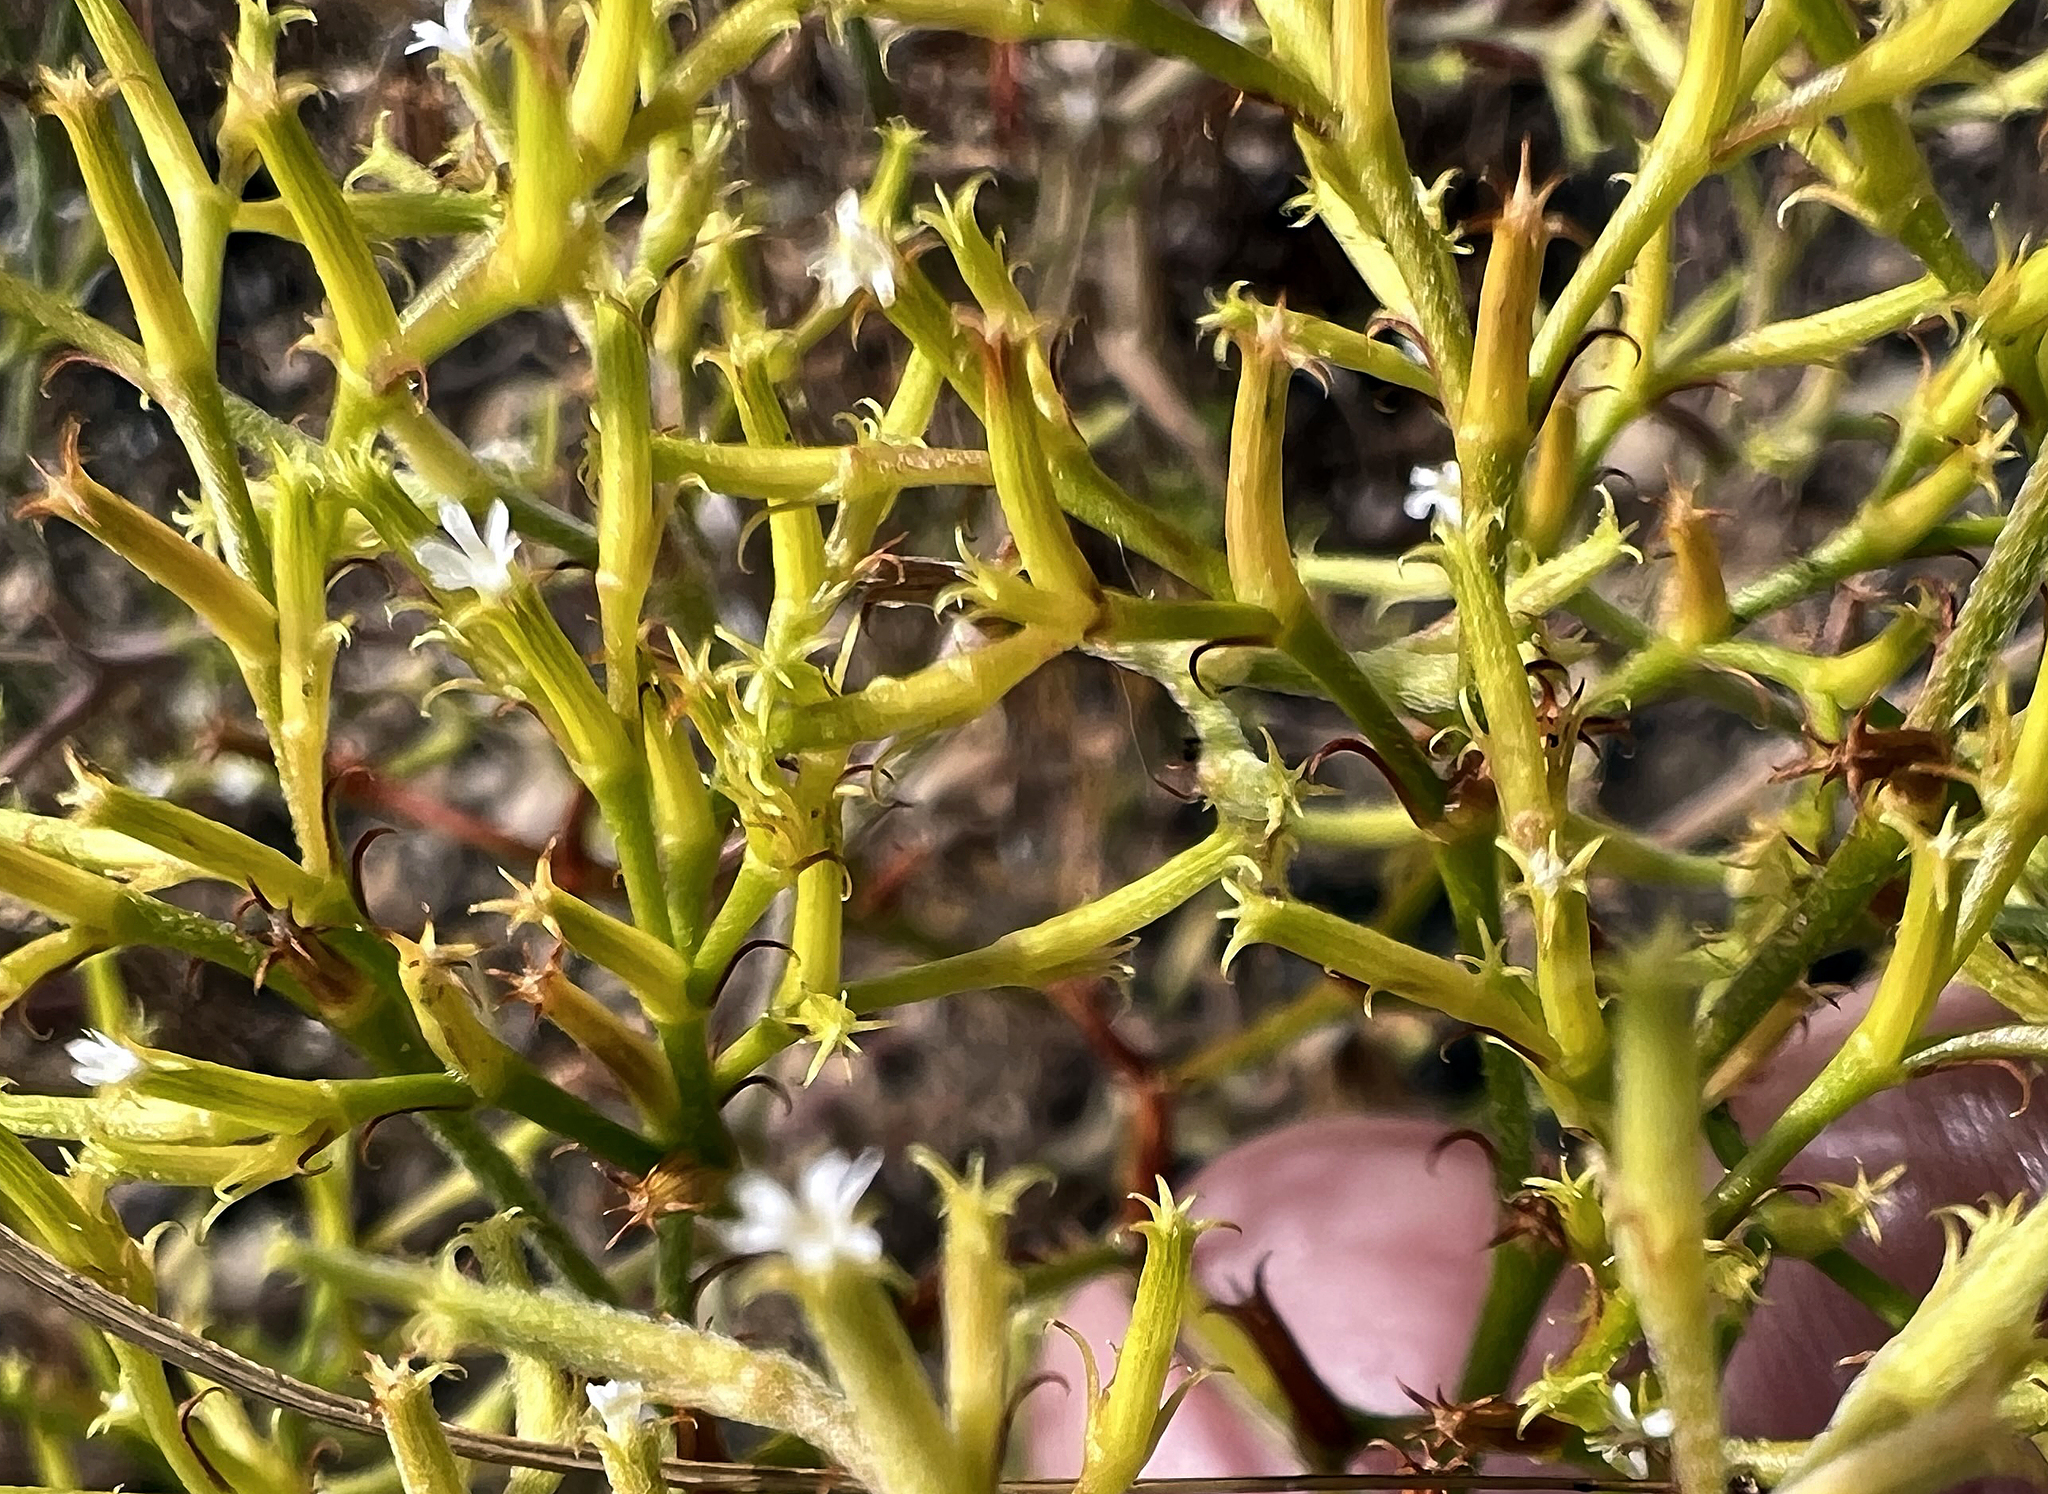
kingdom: Plantae
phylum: Tracheophyta
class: Magnoliopsida
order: Caryophyllales
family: Polygonaceae
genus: Chorizanthe
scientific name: Chorizanthe brevicornu
